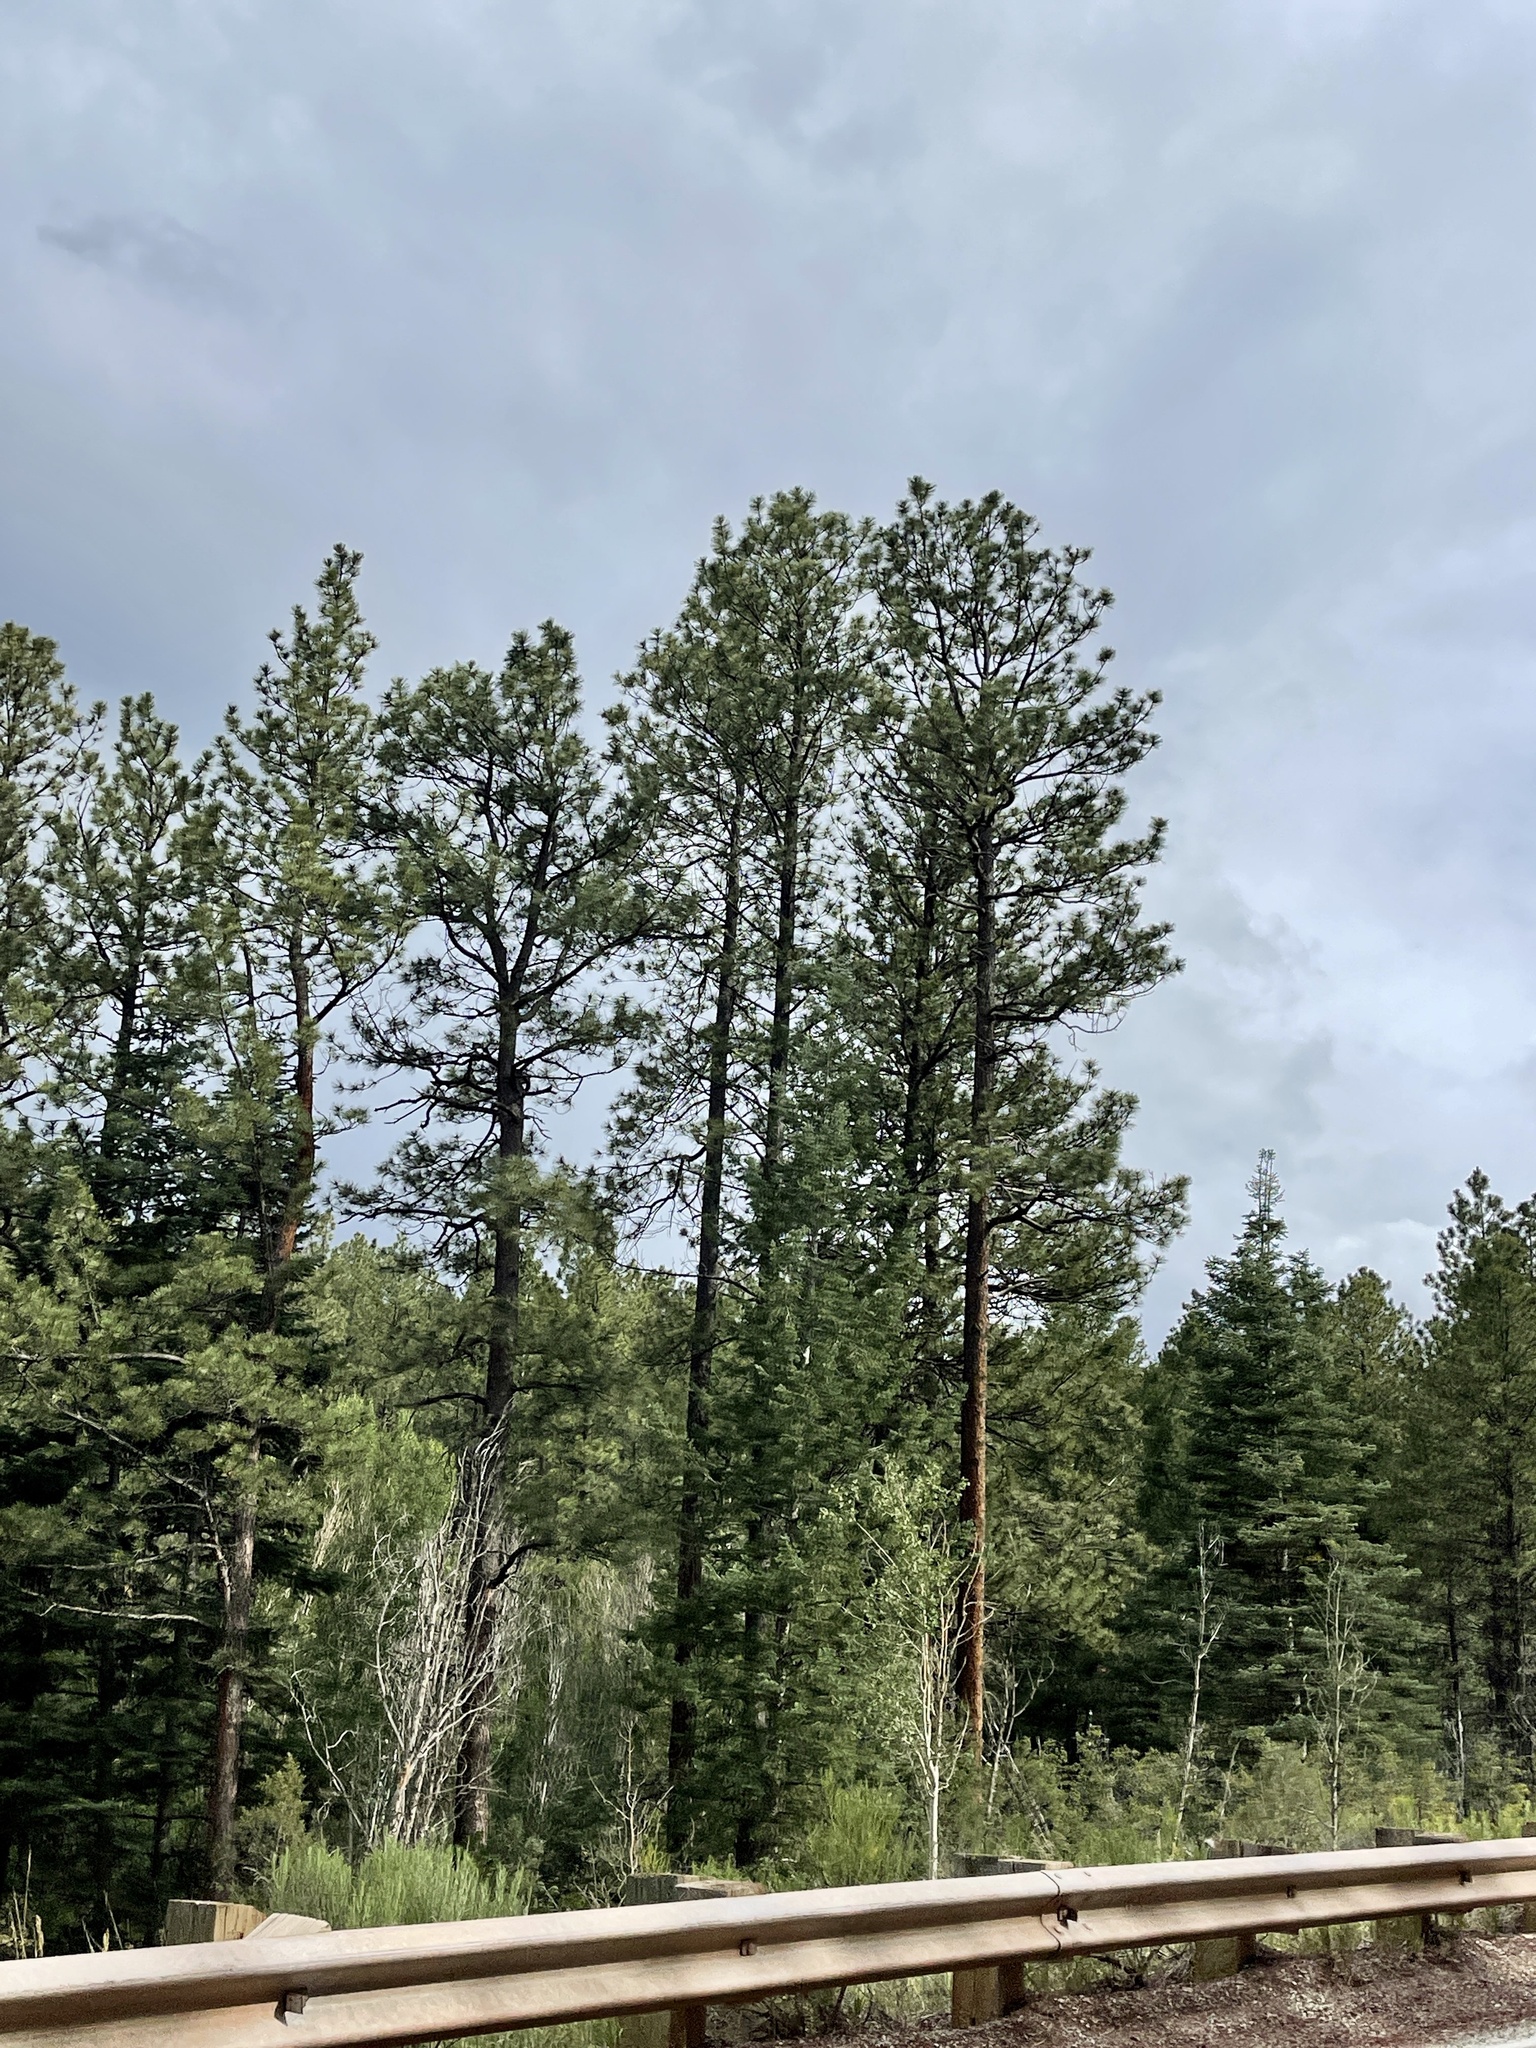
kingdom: Plantae
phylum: Tracheophyta
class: Pinopsida
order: Pinales
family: Pinaceae
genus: Pinus
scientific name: Pinus ponderosa
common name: Western yellow-pine
